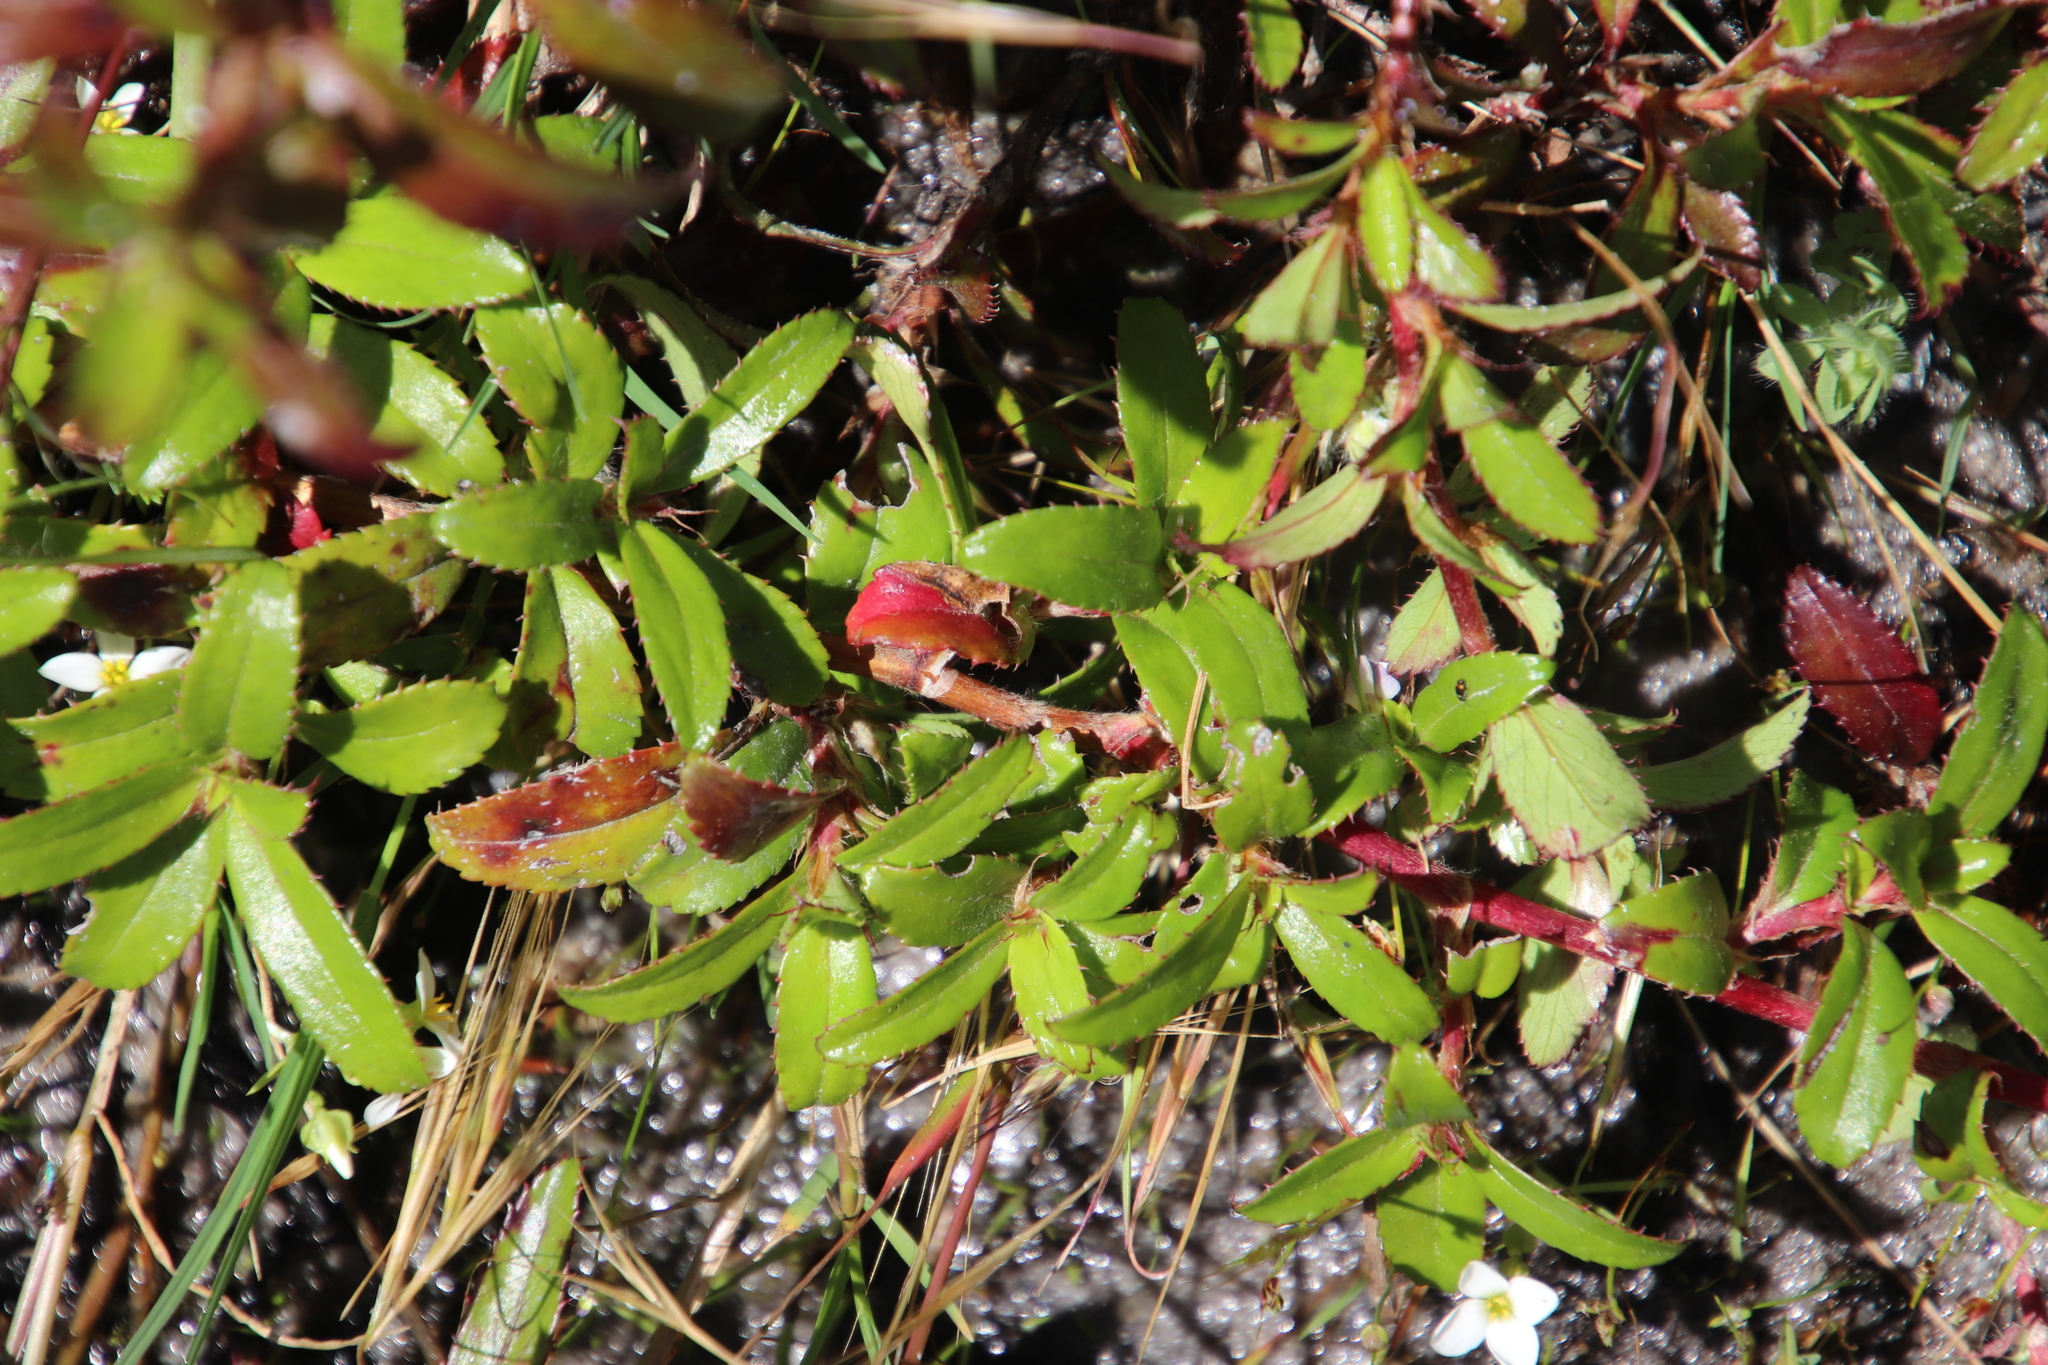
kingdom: Plantae
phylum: Tracheophyta
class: Magnoliopsida
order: Rosales
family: Rosaceae
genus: Cliffortia
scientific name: Cliffortia ferruginea
